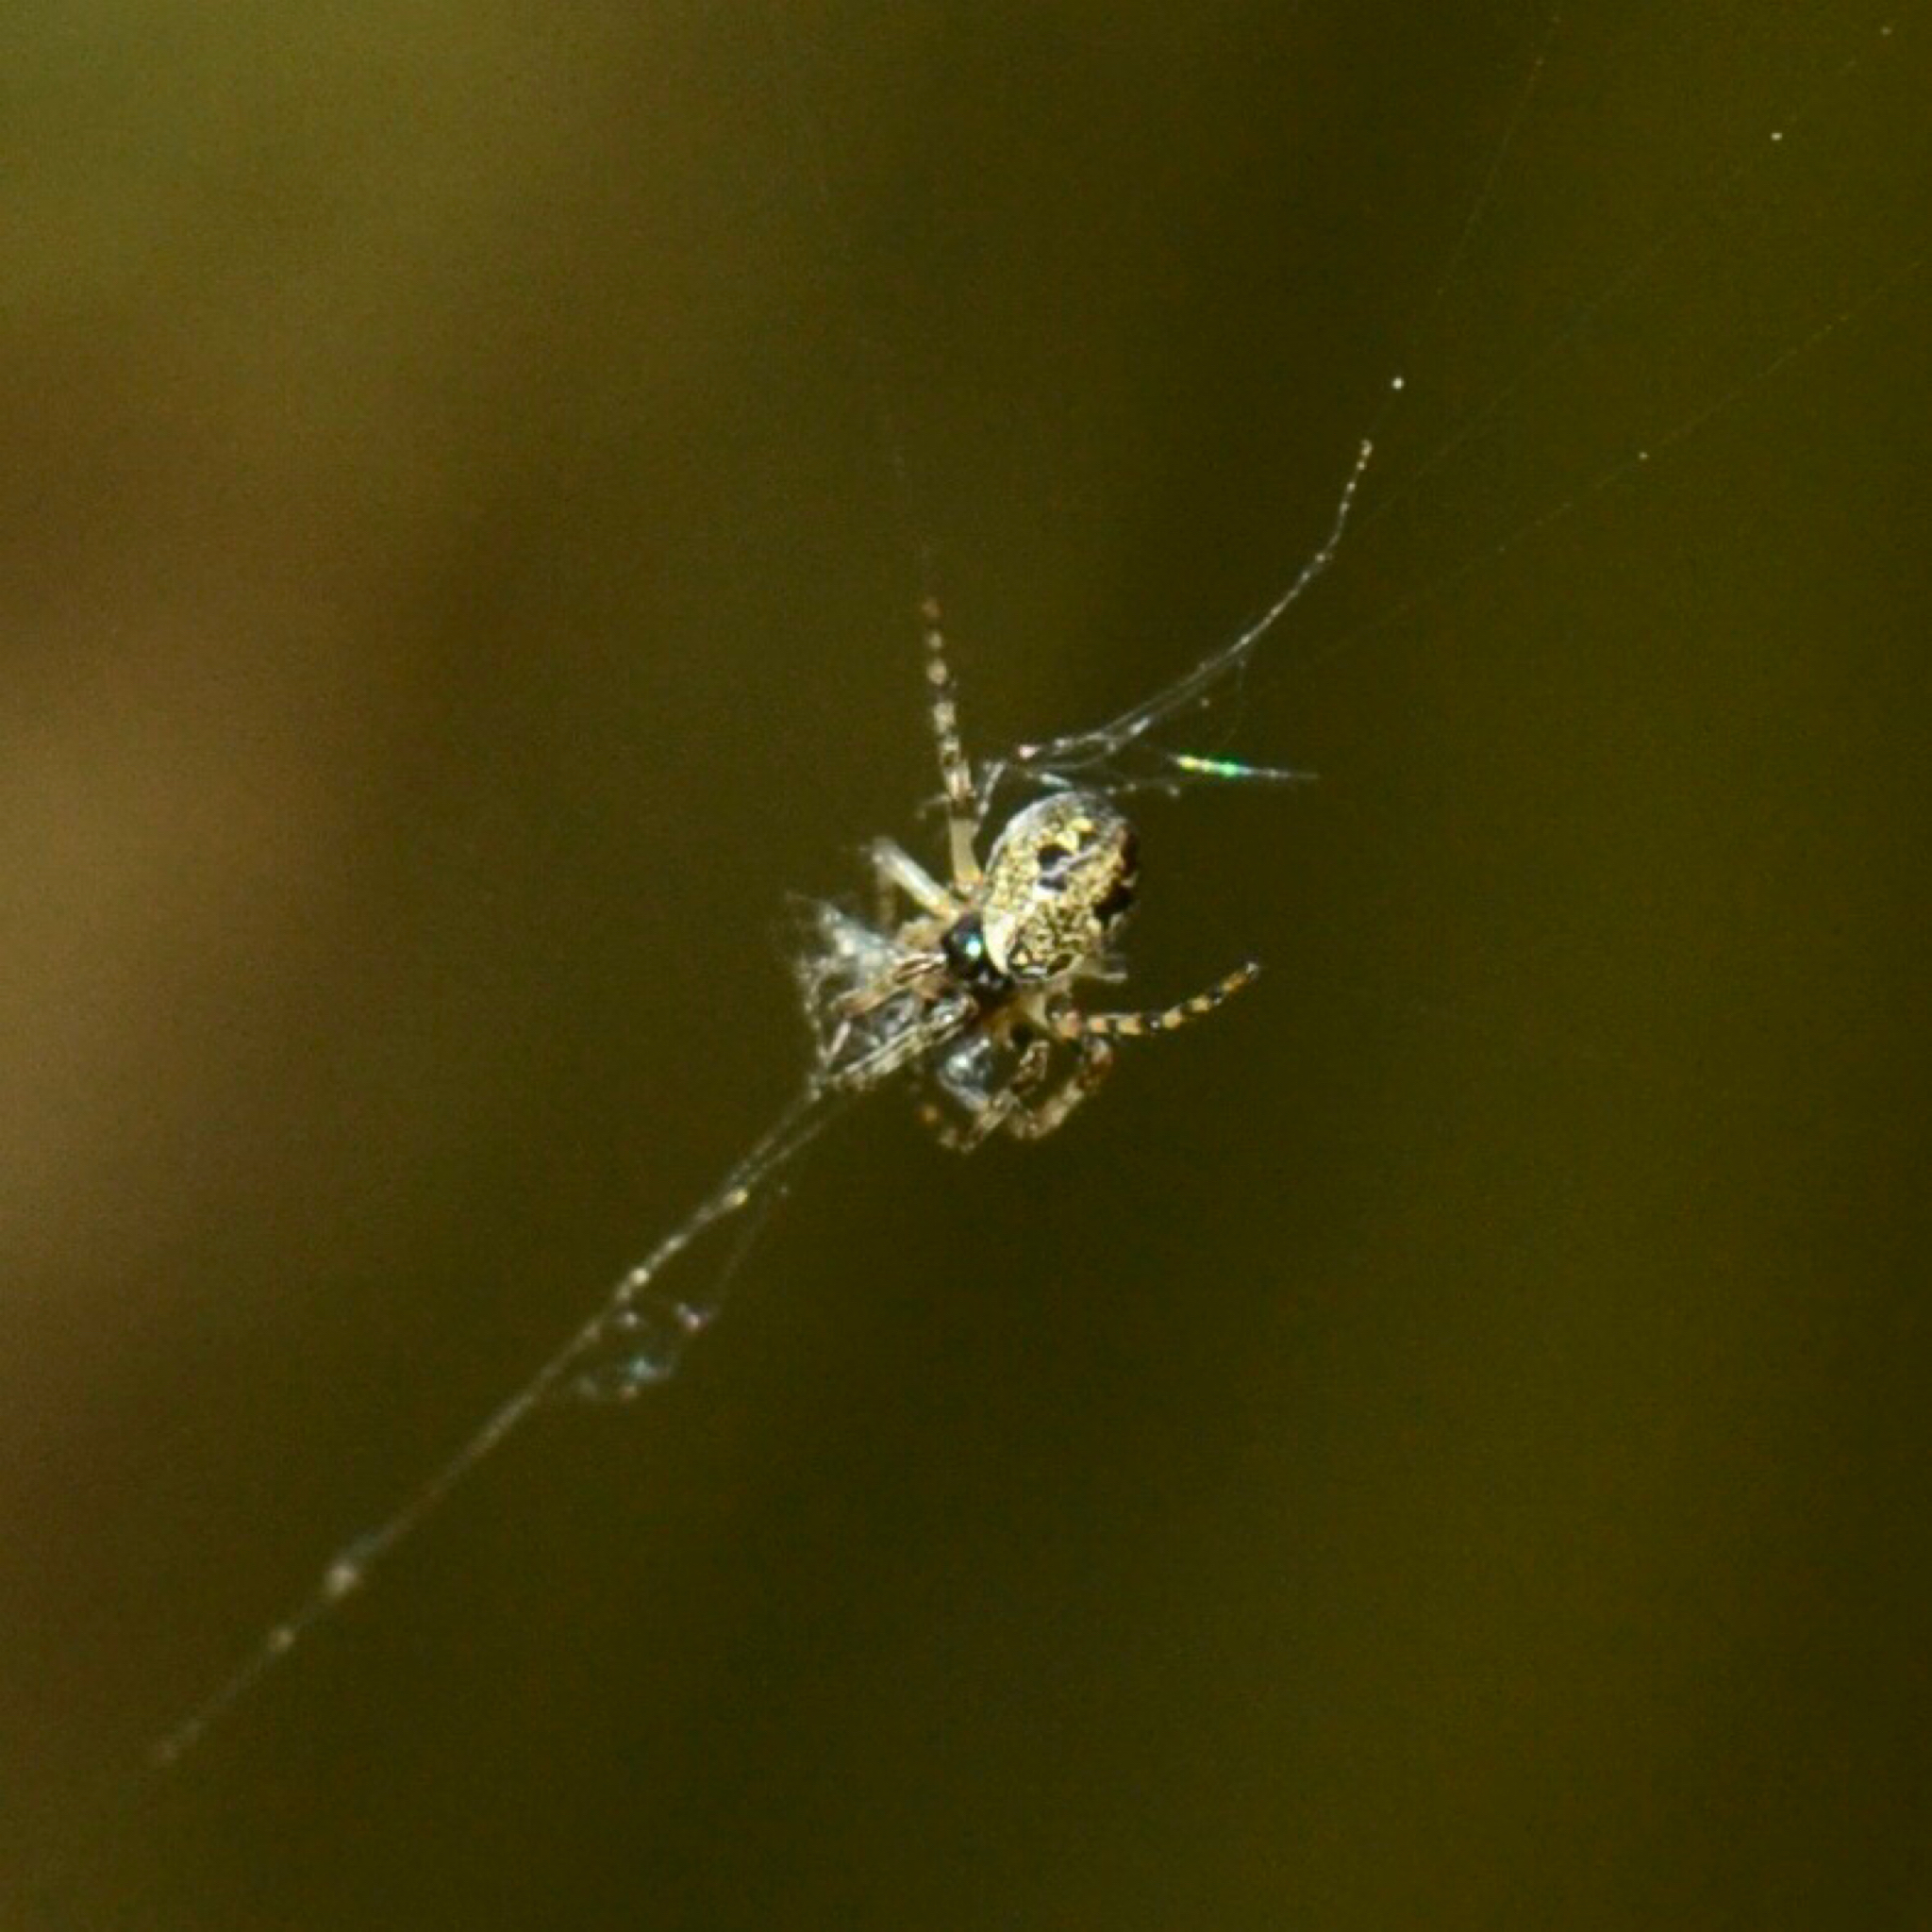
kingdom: Animalia
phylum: Arthropoda
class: Arachnida
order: Araneae
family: Araneidae
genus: Cyclosa
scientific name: Cyclosa conica
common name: Conical trashline orbweaver
